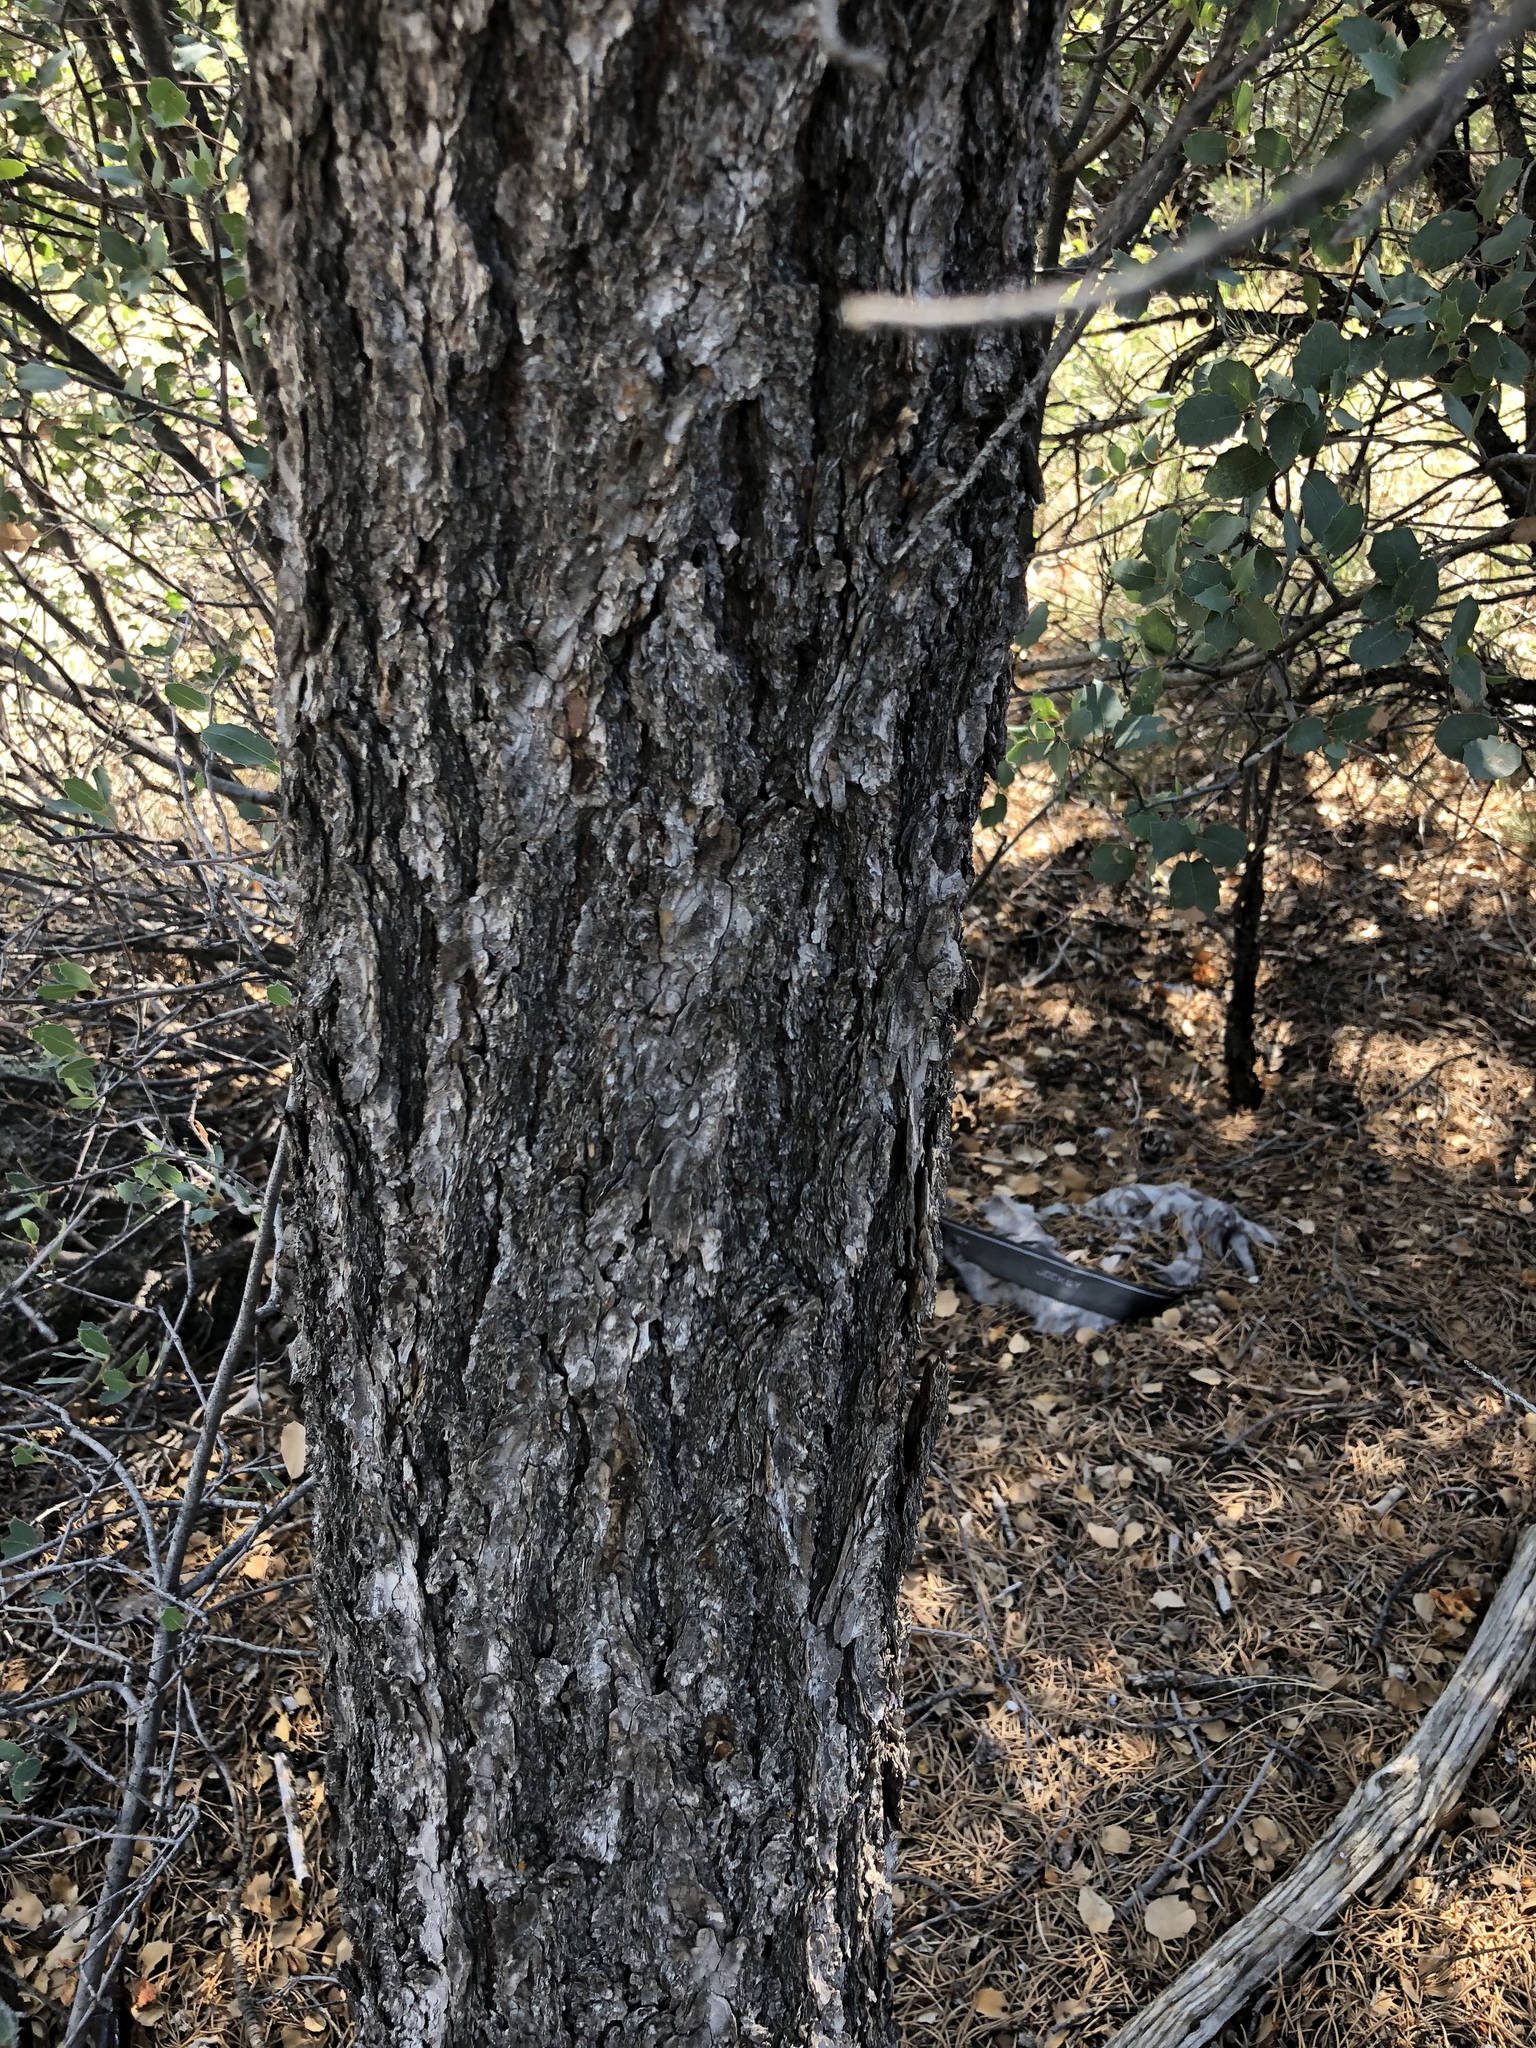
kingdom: Plantae
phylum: Tracheophyta
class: Pinopsida
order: Pinales
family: Pinaceae
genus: Pinus
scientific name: Pinus monophylla
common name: One-leaved nut pine
